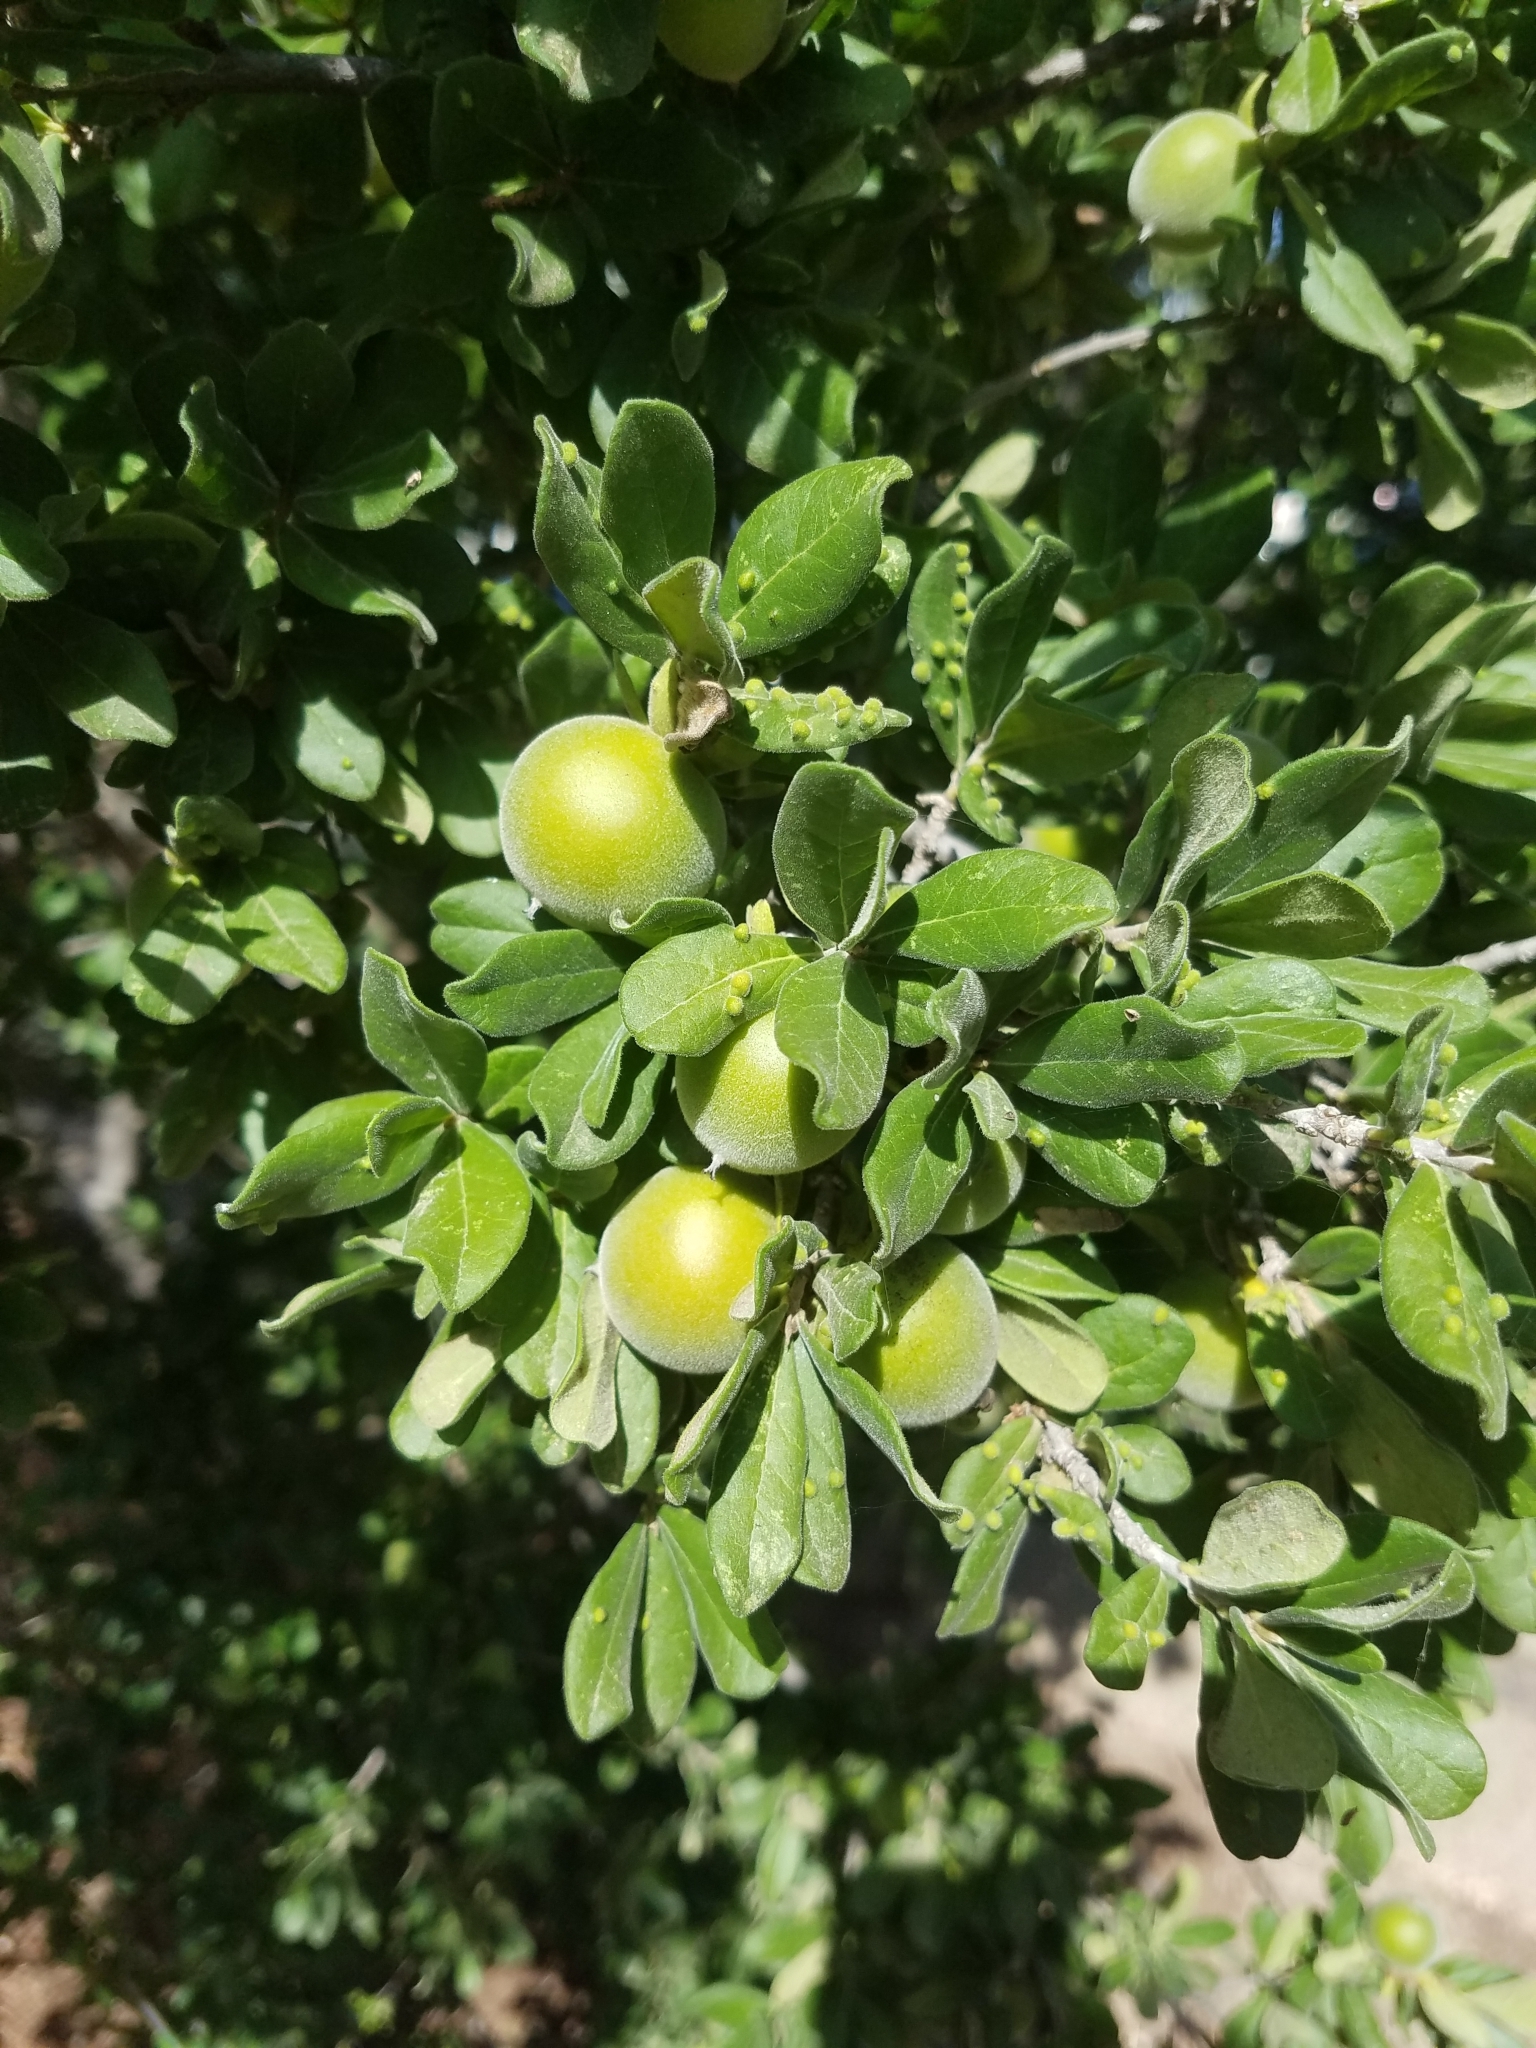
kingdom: Plantae
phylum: Tracheophyta
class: Magnoliopsida
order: Ericales
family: Ebenaceae
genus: Diospyros
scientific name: Diospyros texana
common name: Texas persimmon
